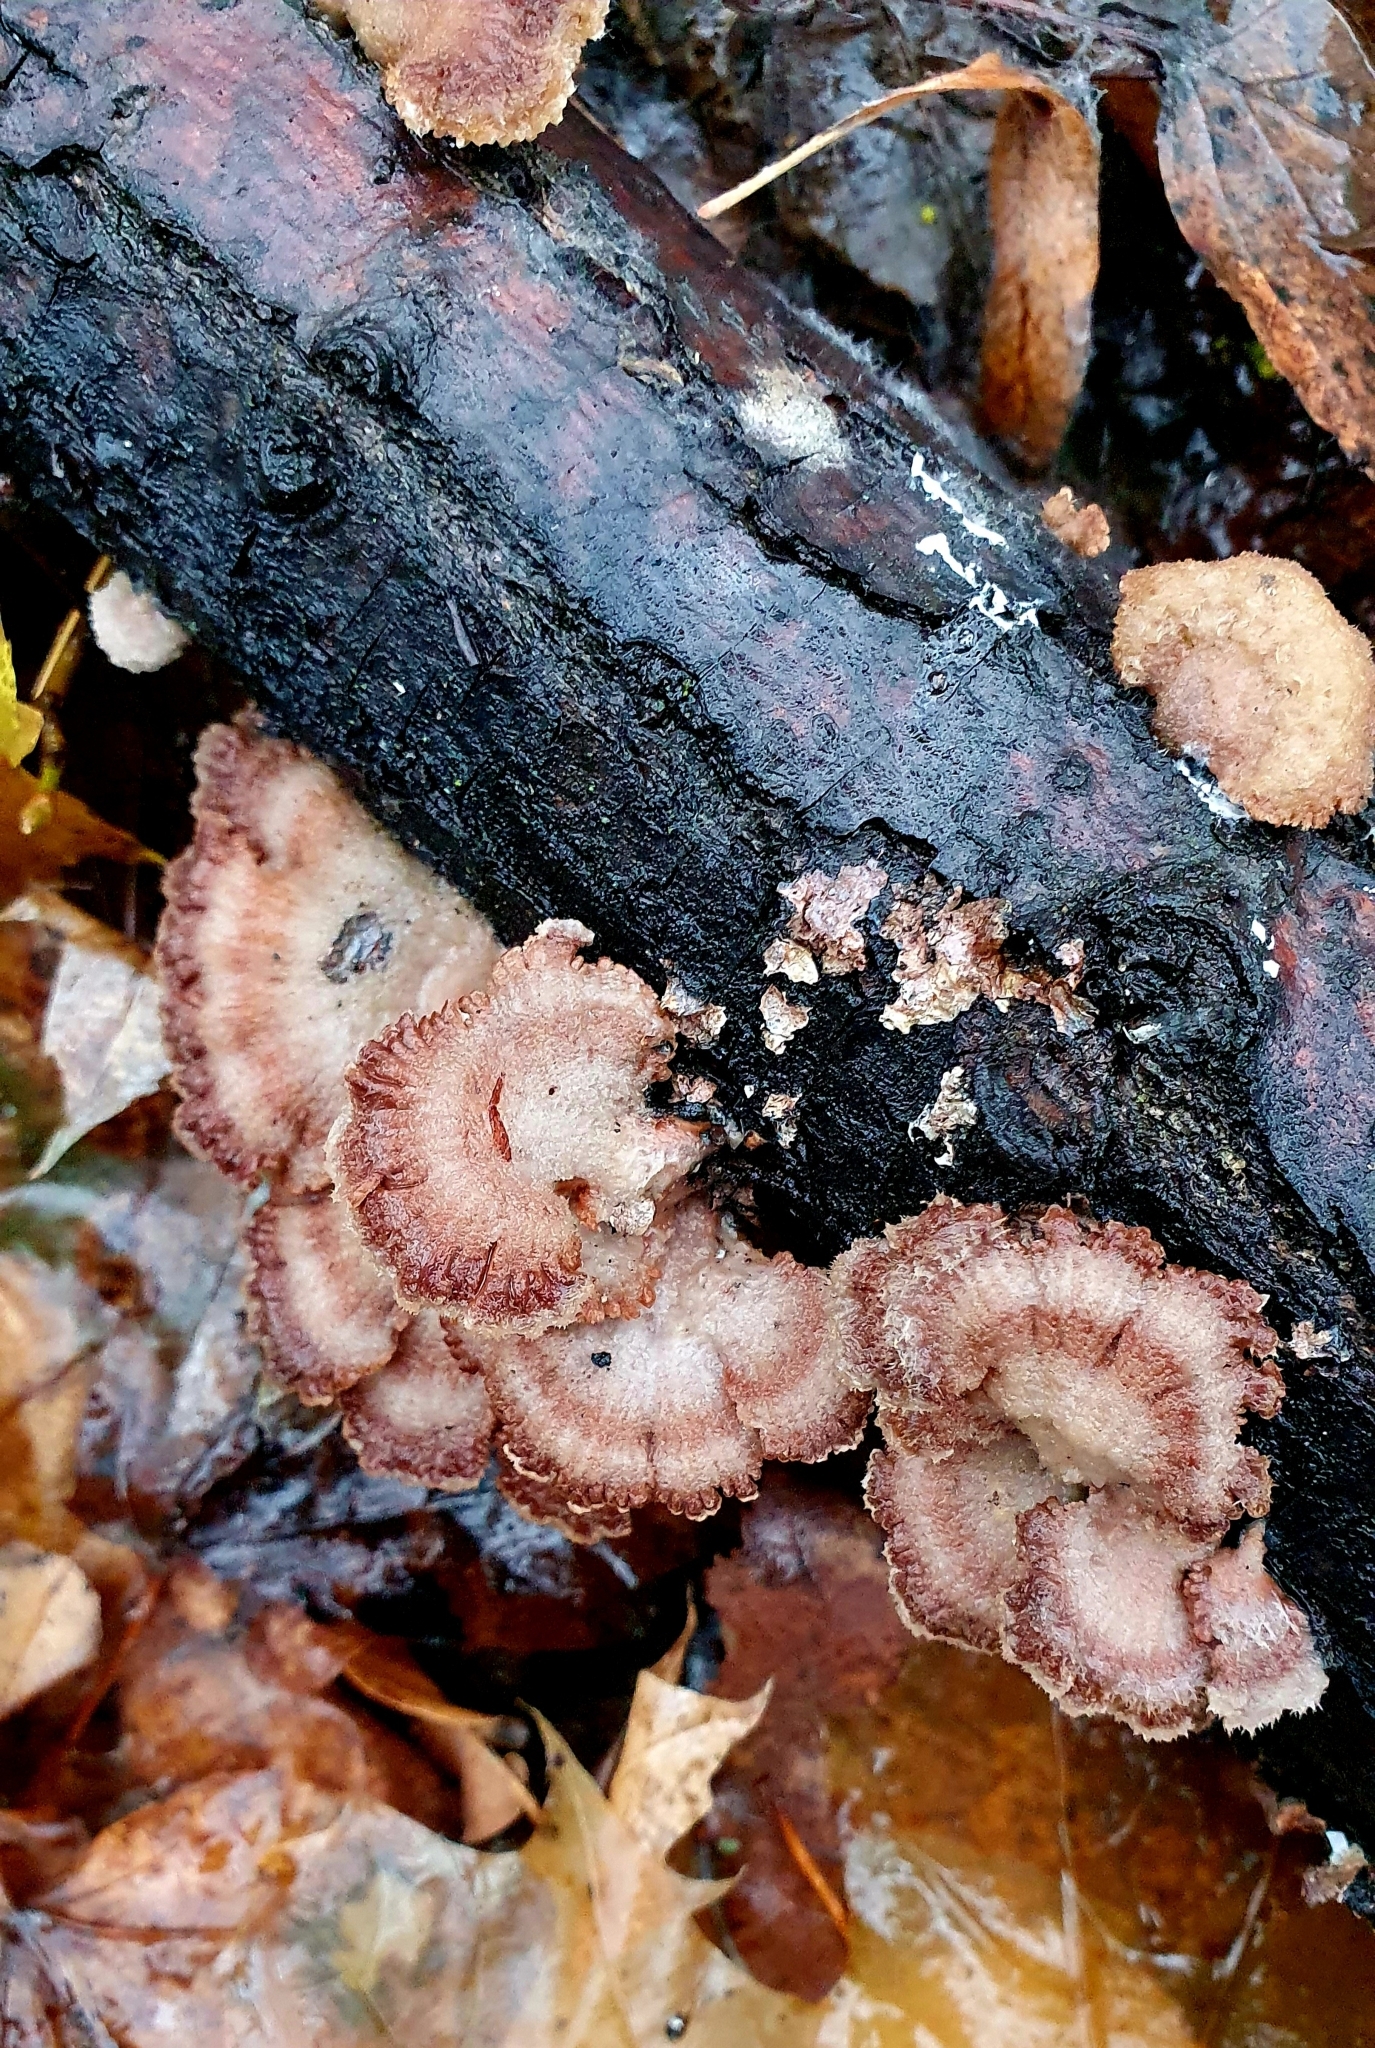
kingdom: Fungi
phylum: Basidiomycota
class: Agaricomycetes
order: Agaricales
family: Schizophyllaceae
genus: Schizophyllum
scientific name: Schizophyllum commune
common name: Common porecrust
